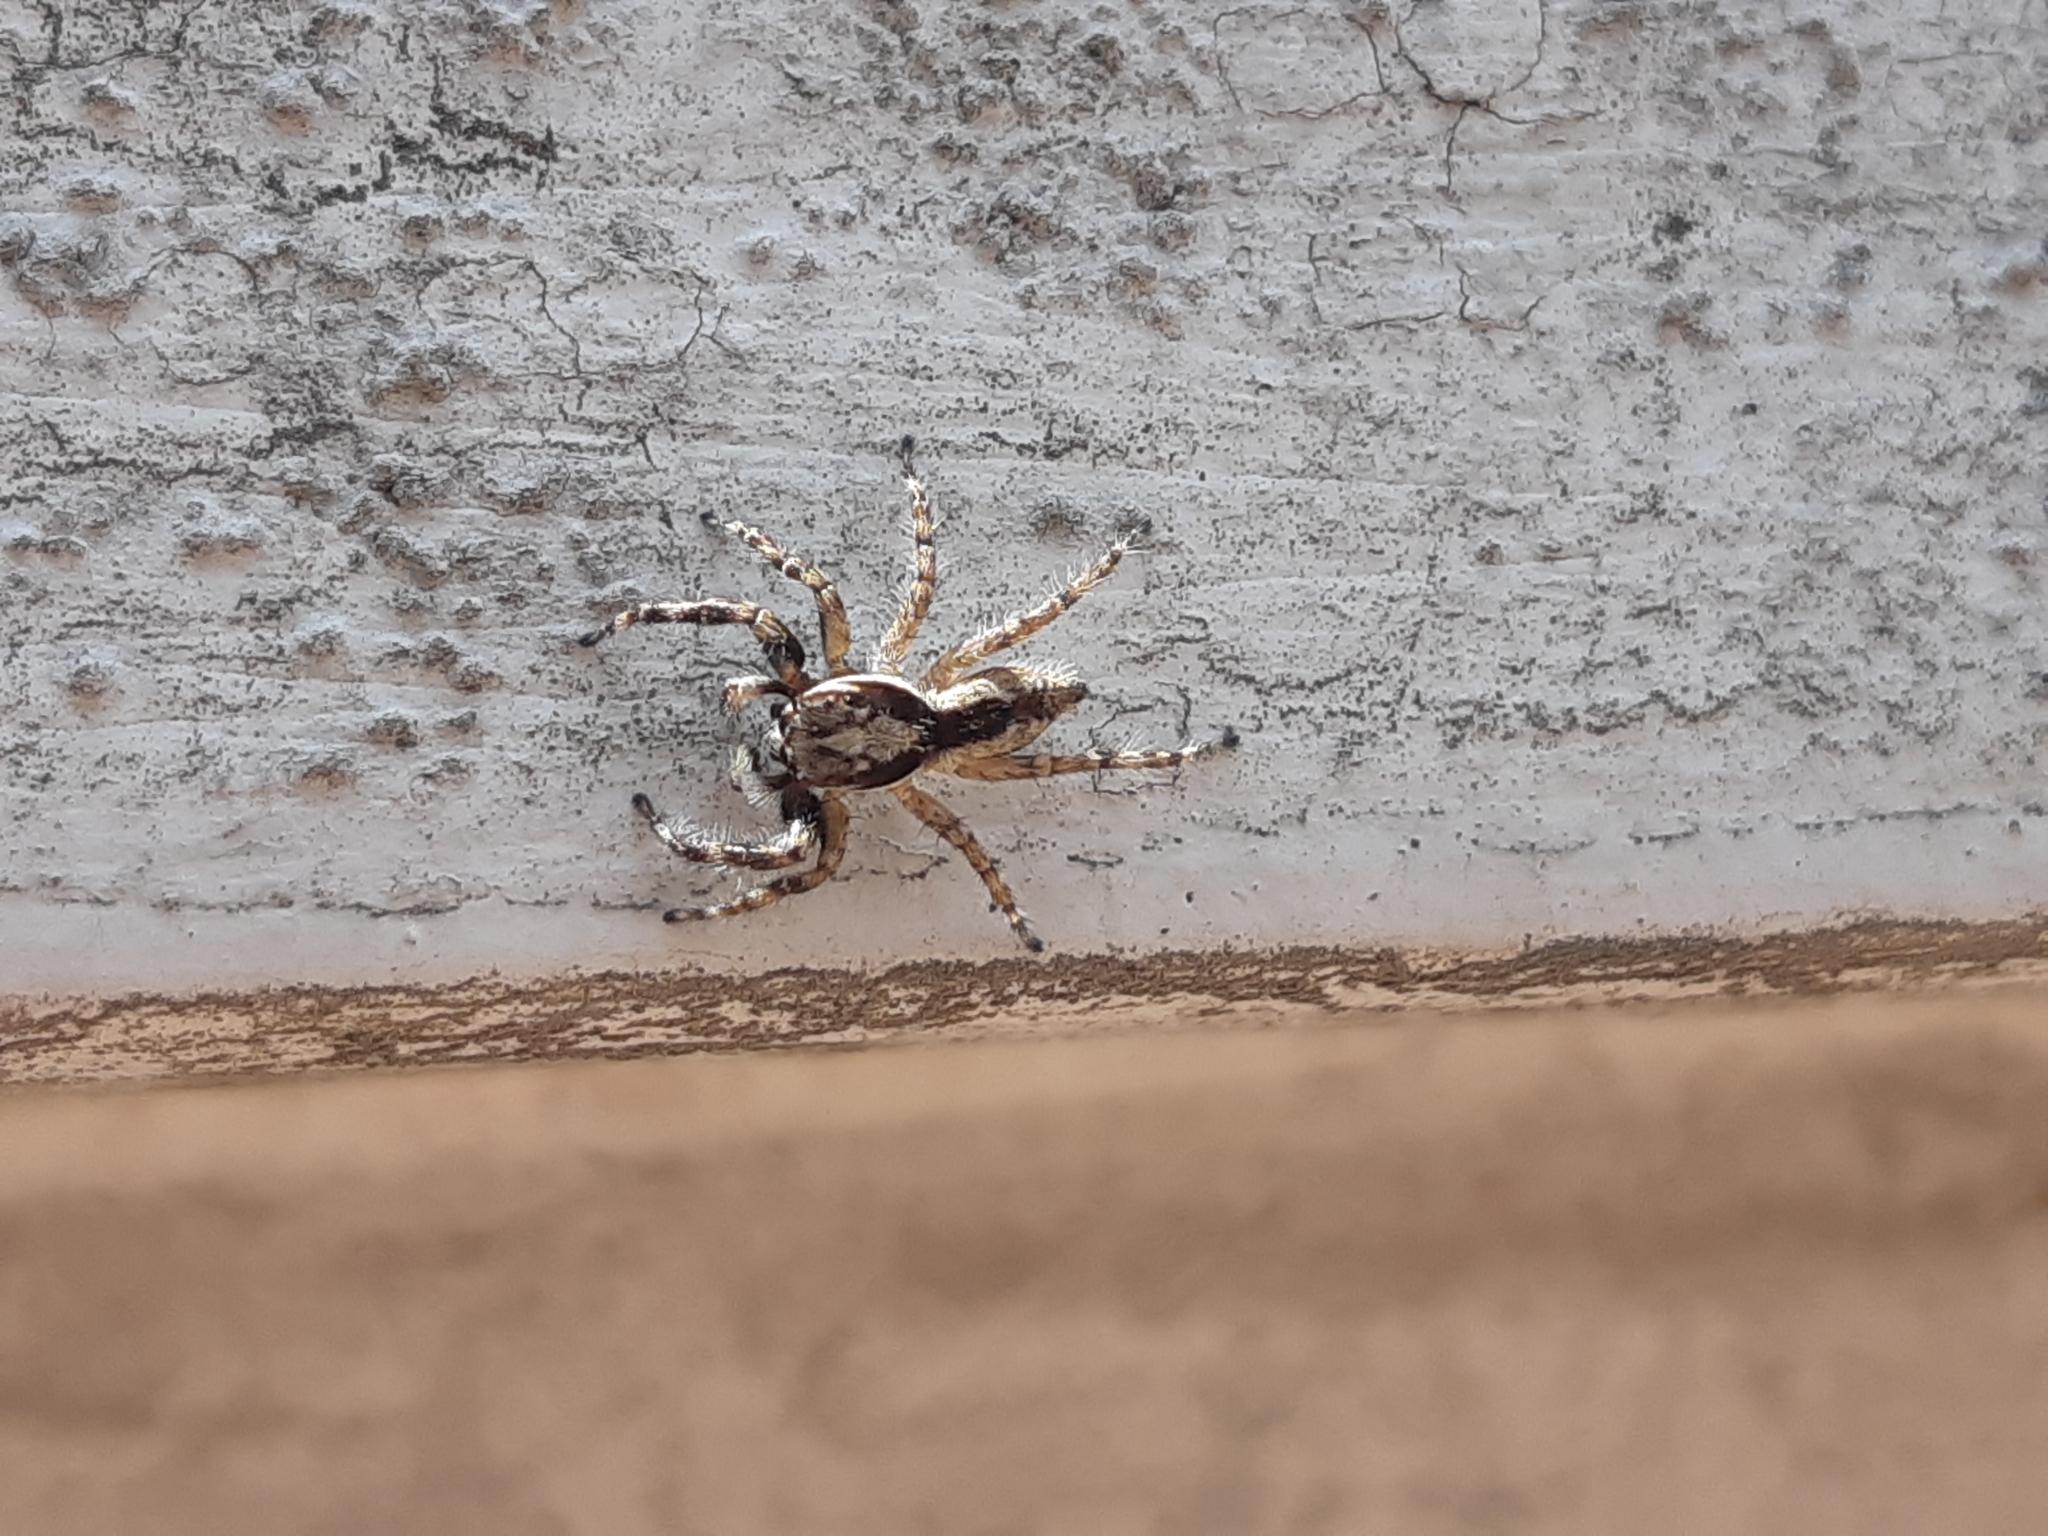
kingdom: Animalia
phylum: Arthropoda
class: Arachnida
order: Araneae
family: Salticidae
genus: Menemerus
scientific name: Menemerus bivittatus
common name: Gray wall jumper
